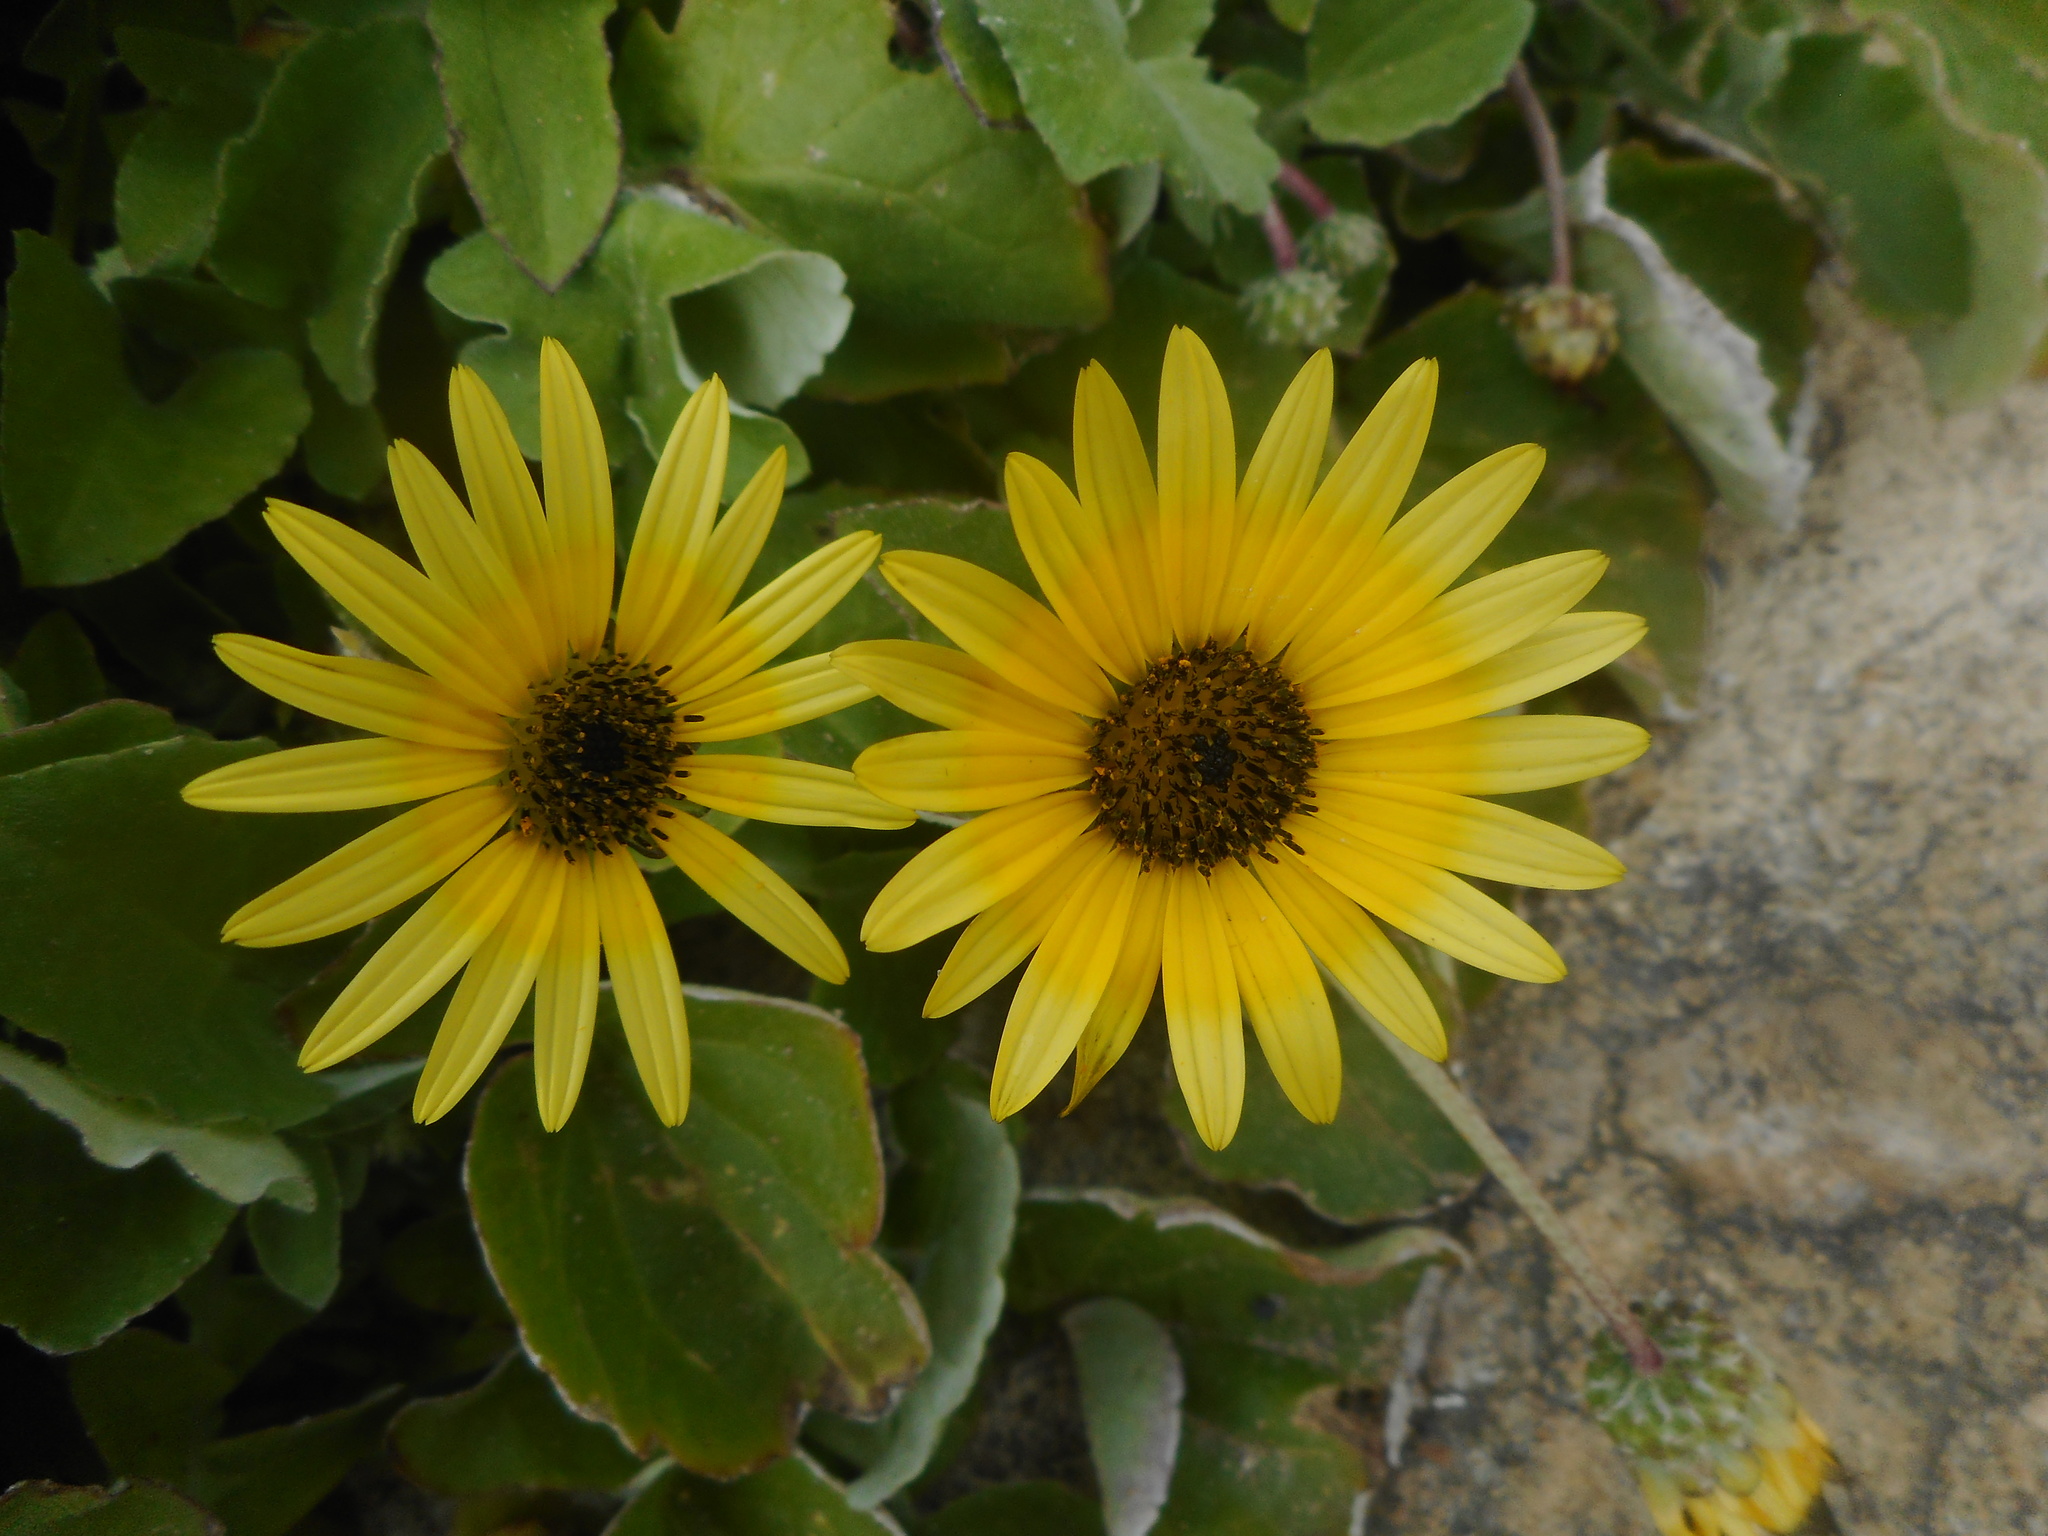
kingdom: Plantae
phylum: Tracheophyta
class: Magnoliopsida
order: Asterales
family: Asteraceae
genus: Arctotheca
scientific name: Arctotheca calendula
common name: Capeweed
